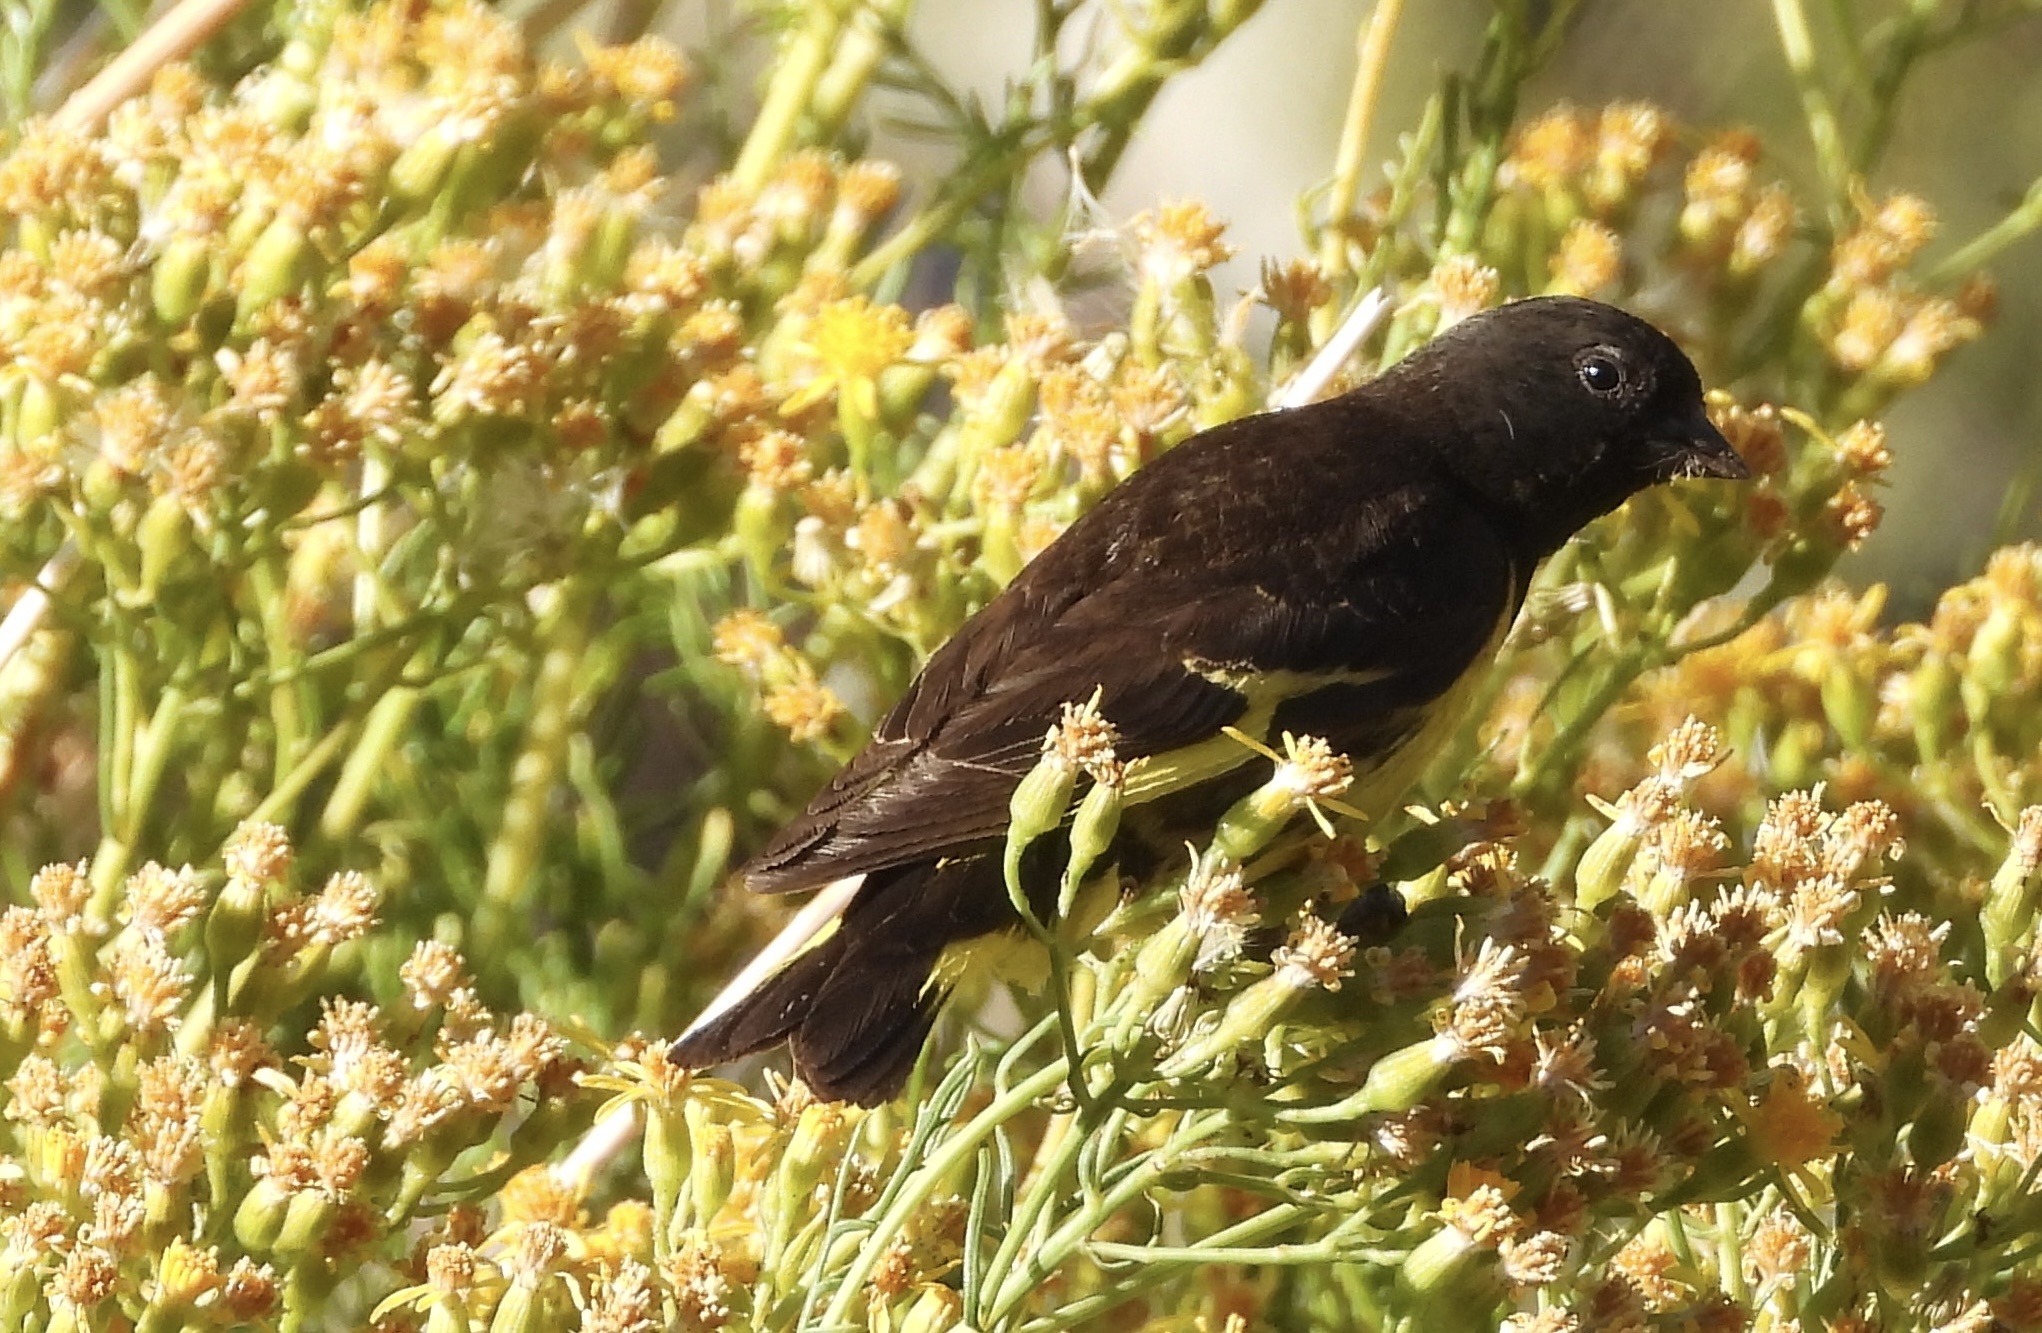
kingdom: Animalia
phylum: Chordata
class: Aves
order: Passeriformes
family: Fringillidae
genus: Spinus
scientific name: Spinus uropygialis
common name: Yellow-rumped siskin
